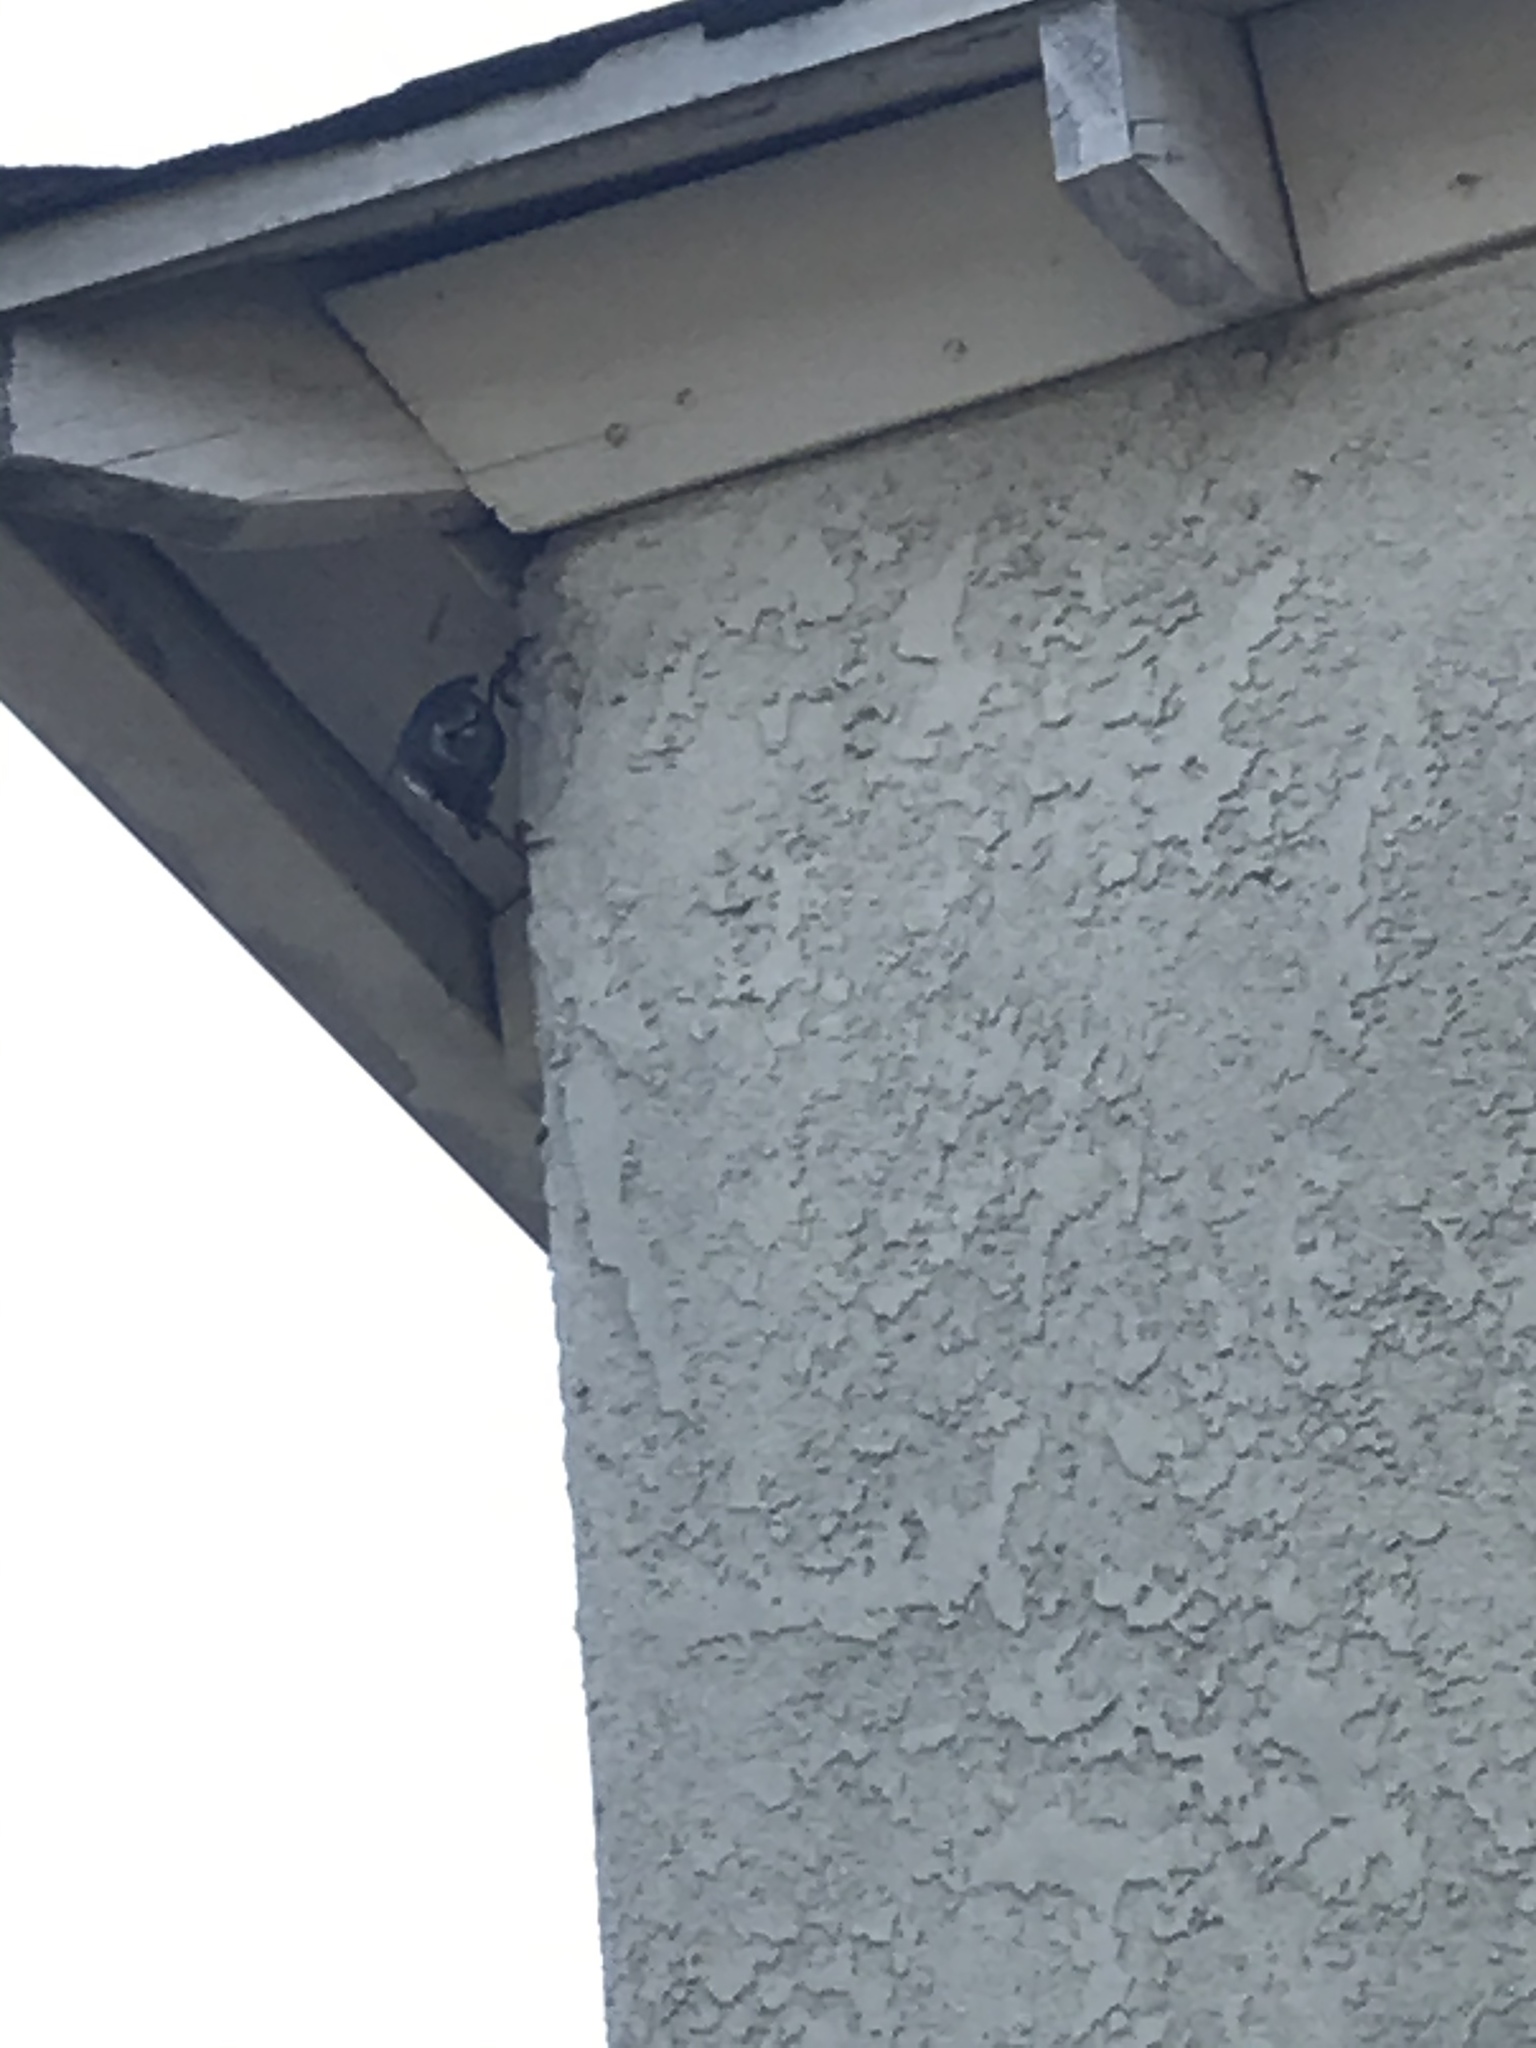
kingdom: Animalia
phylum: Chordata
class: Aves
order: Passeriformes
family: Sturnidae
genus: Sturnus
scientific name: Sturnus vulgaris
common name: Common starling
